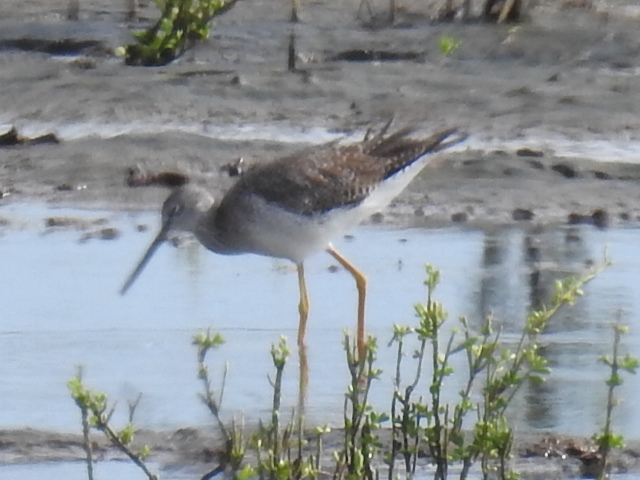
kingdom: Animalia
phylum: Chordata
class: Aves
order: Charadriiformes
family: Scolopacidae
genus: Tringa
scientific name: Tringa melanoleuca
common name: Greater yellowlegs
